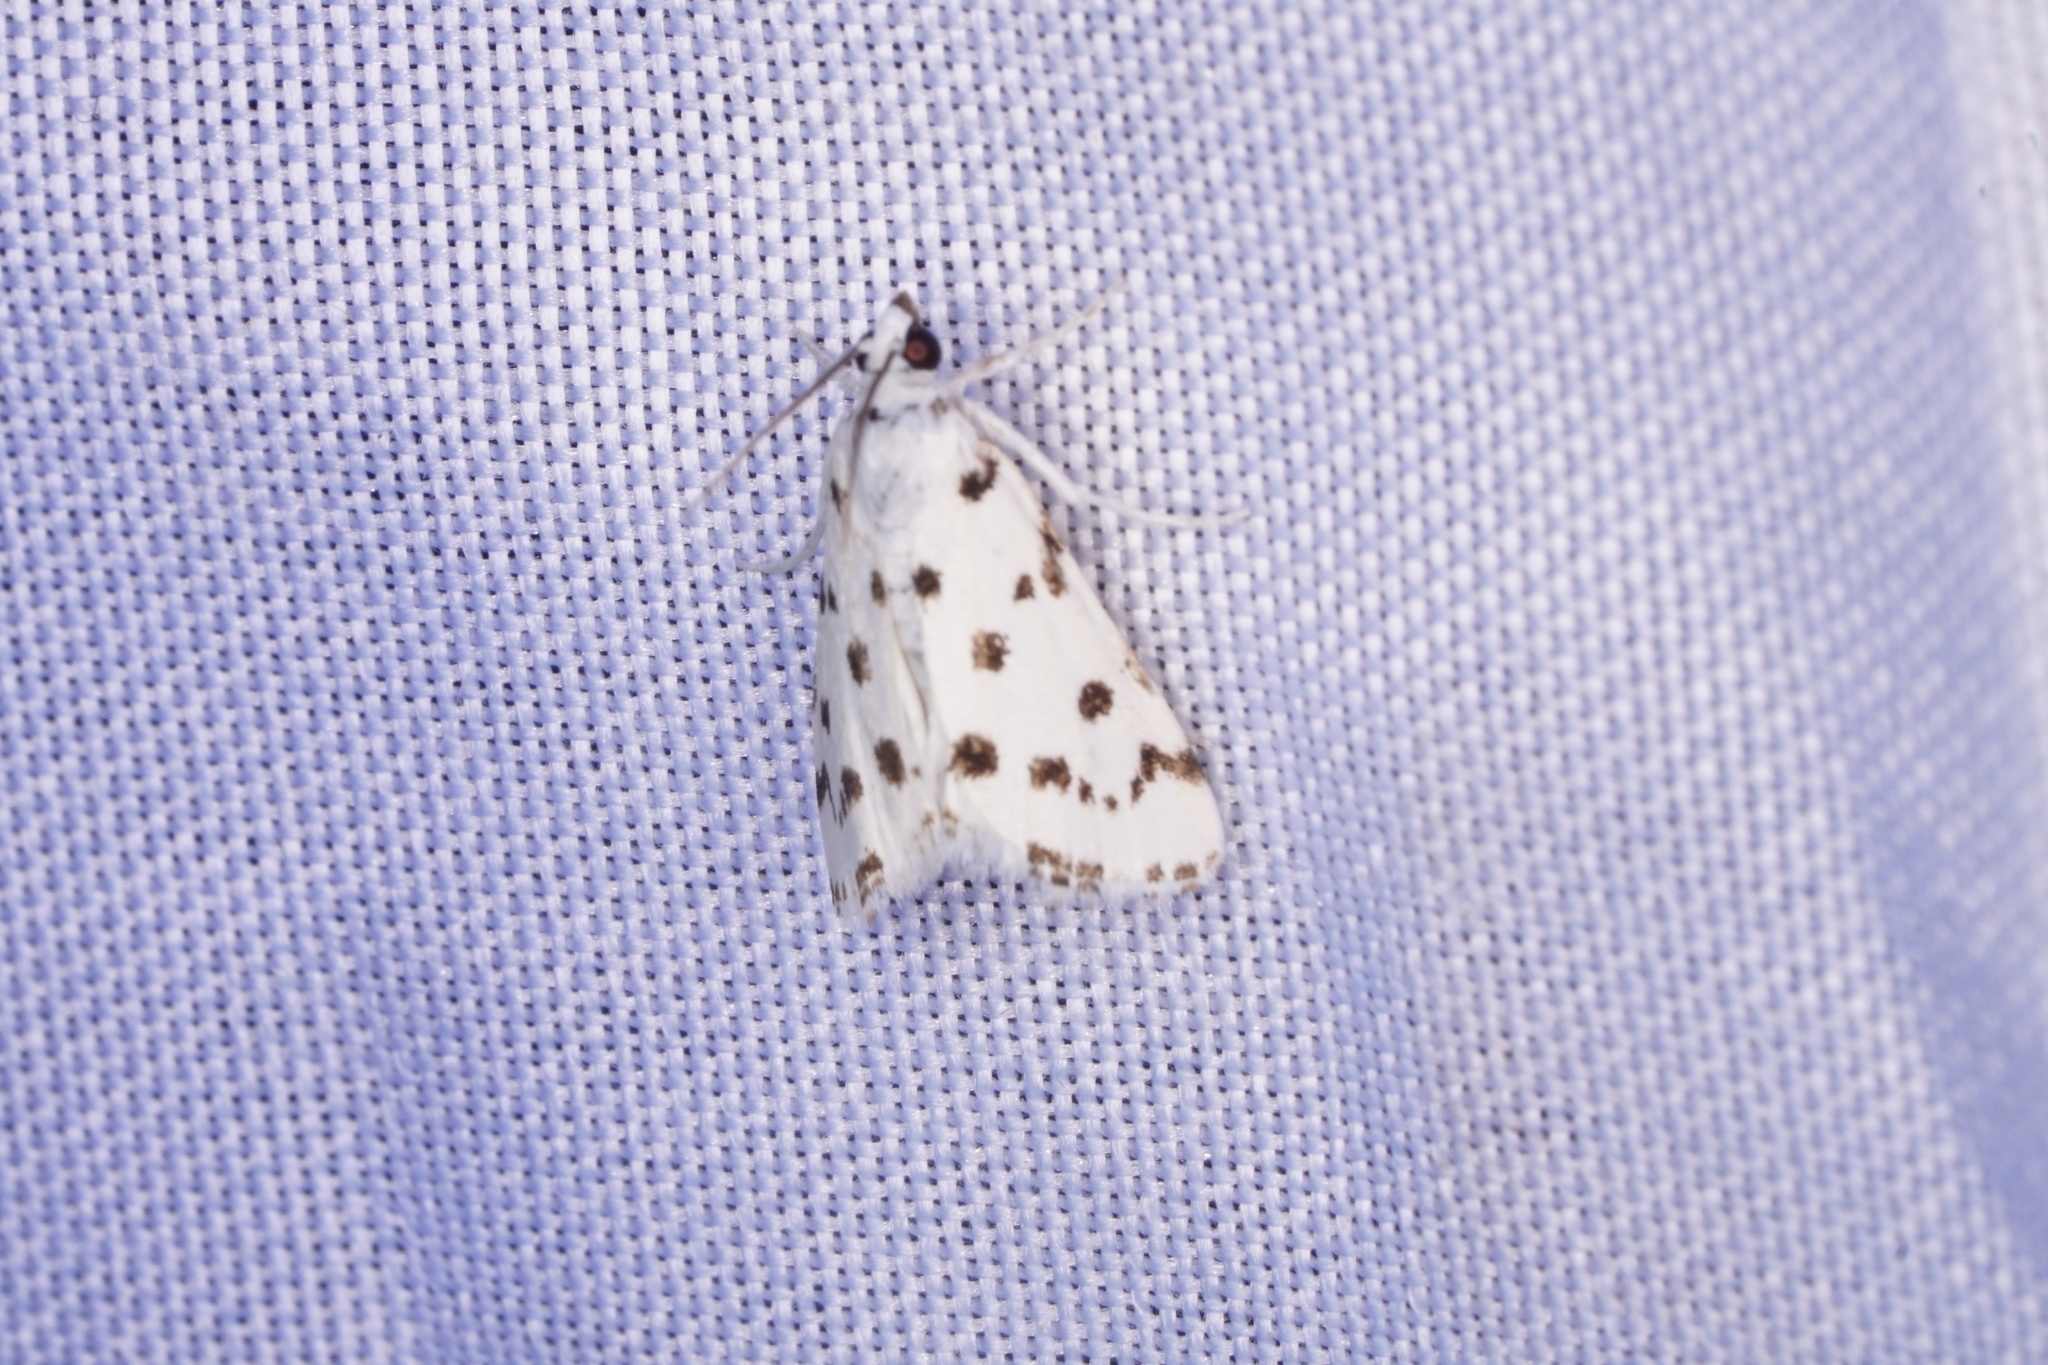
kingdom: Animalia
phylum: Arthropoda
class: Insecta
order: Lepidoptera
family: Crambidae
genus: Eustixia
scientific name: Eustixia pupula
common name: American cabbage pearl
